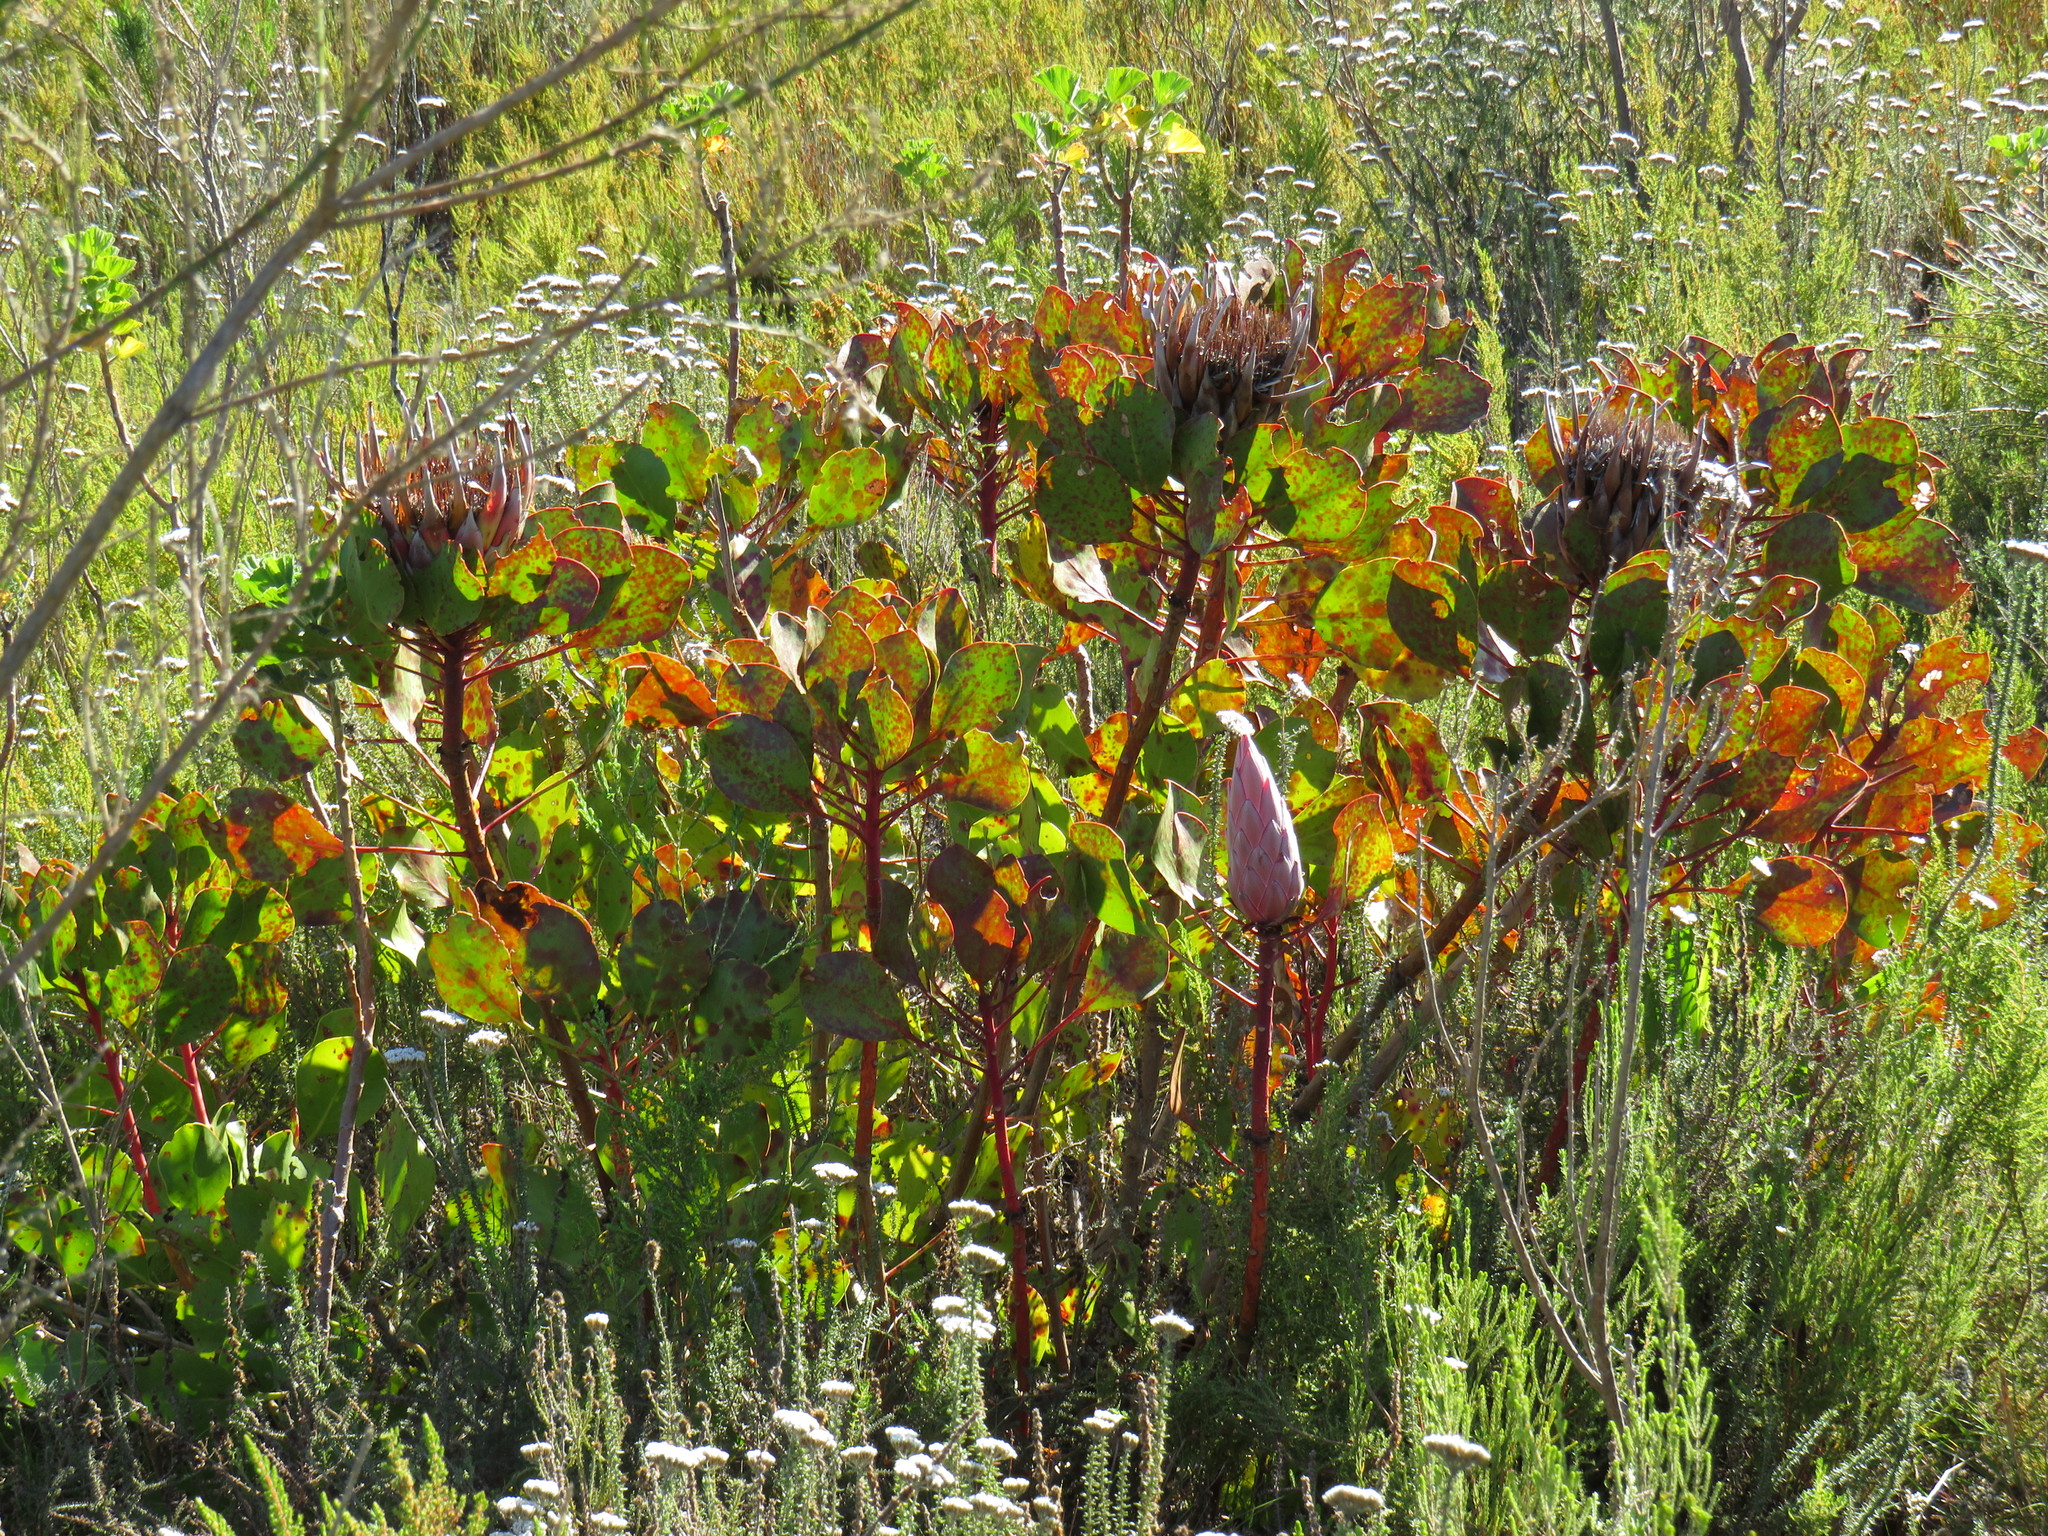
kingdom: Plantae
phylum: Tracheophyta
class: Magnoliopsida
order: Proteales
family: Proteaceae
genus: Protea
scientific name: Protea cynaroides
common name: King protea
